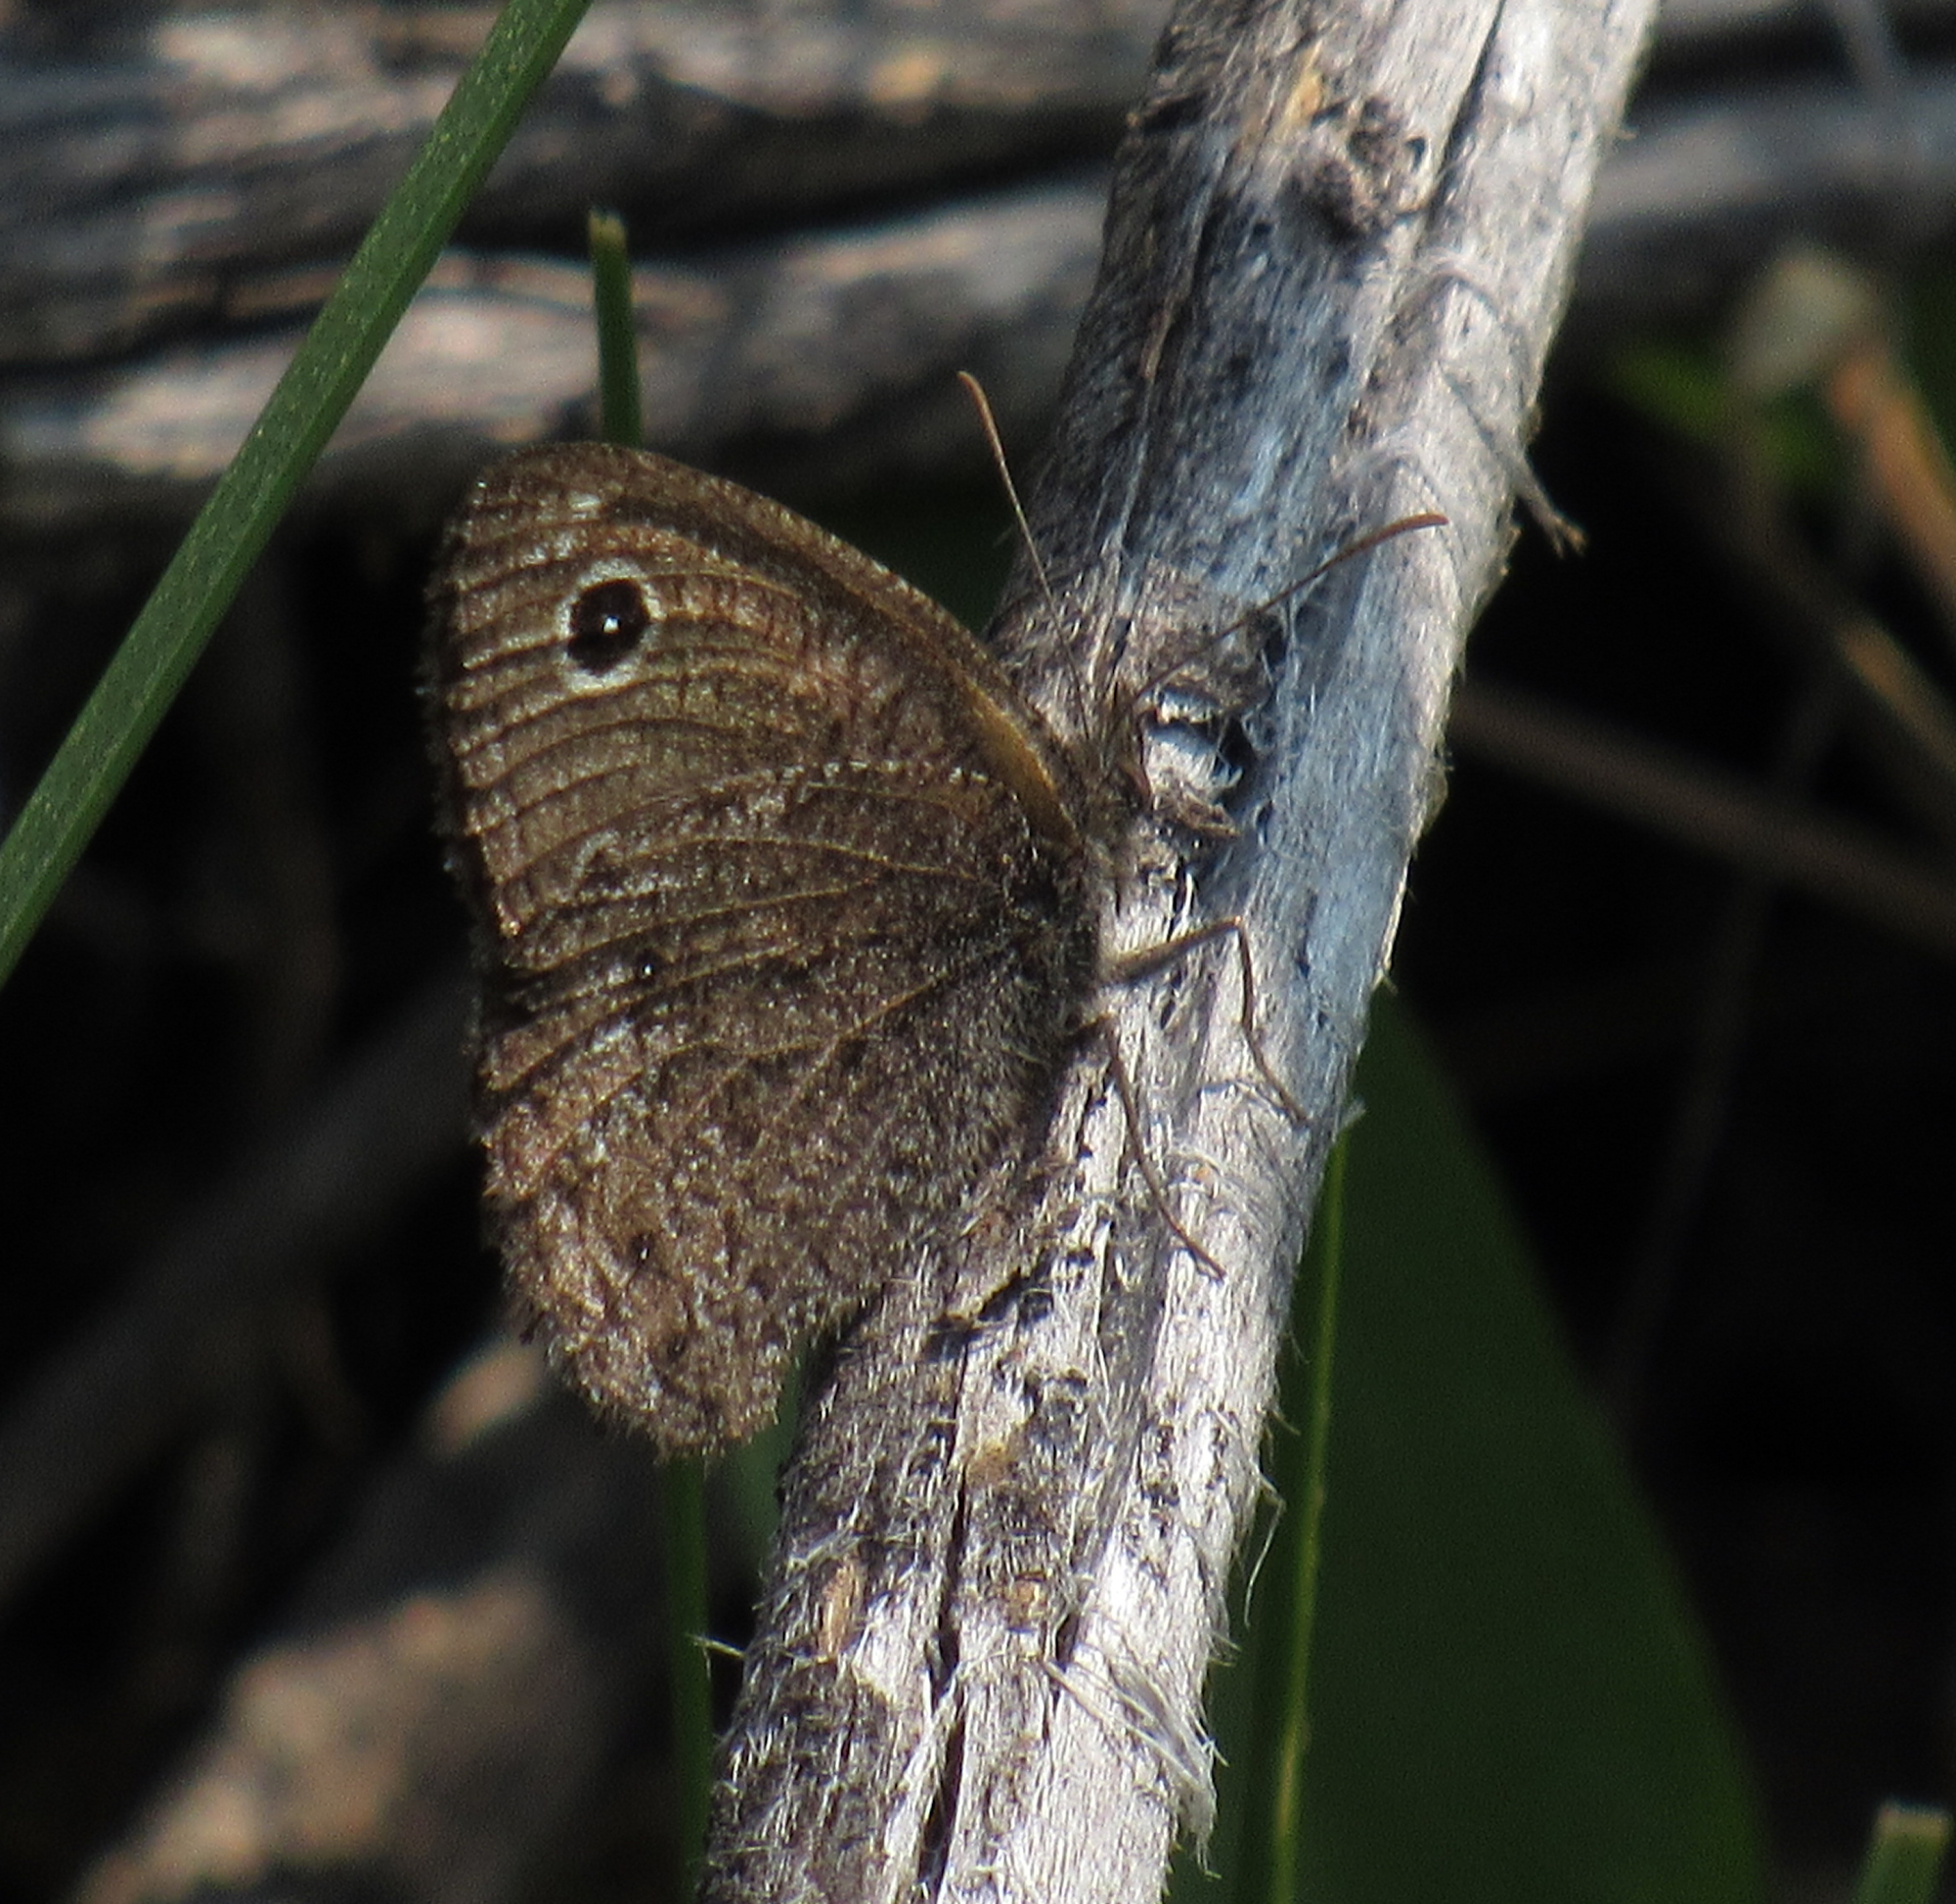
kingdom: Animalia
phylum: Arthropoda
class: Insecta
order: Lepidoptera
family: Nymphalidae
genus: Cercyonis
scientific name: Cercyonis oetus
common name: Small wood-nymph
